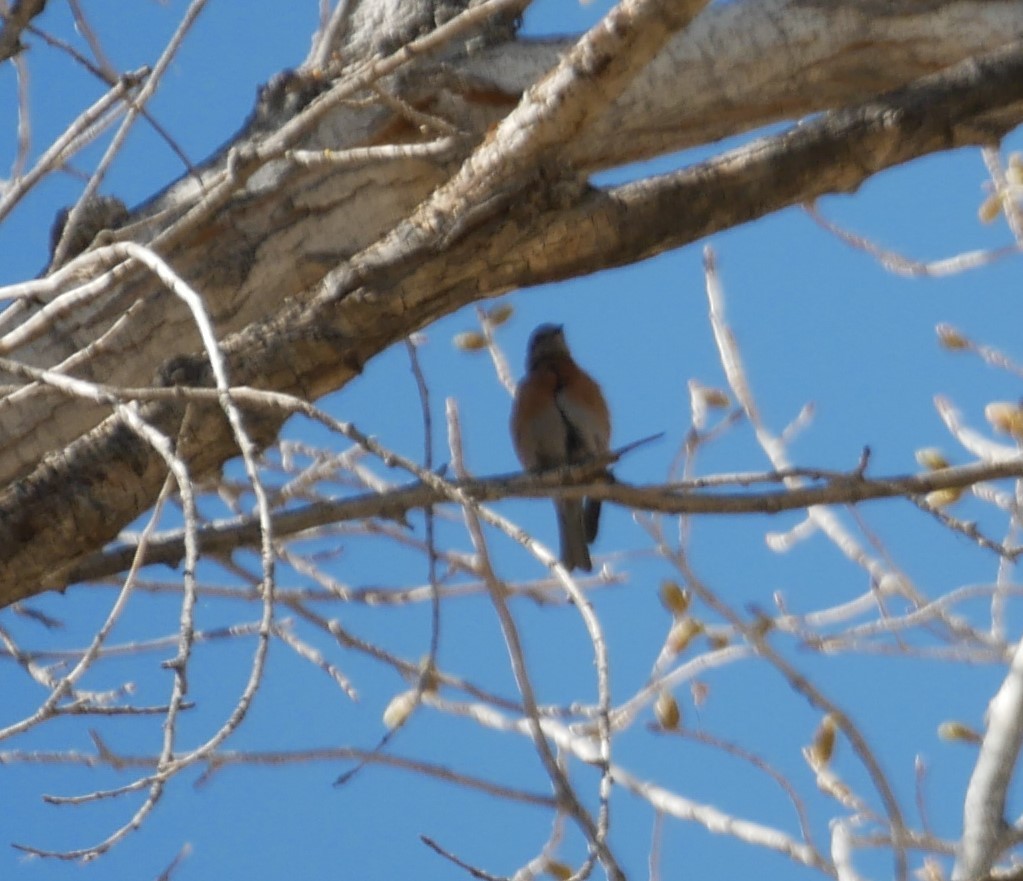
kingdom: Animalia
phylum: Chordata
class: Aves
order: Passeriformes
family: Turdidae
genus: Sialia
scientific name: Sialia mexicana
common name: Western bluebird
